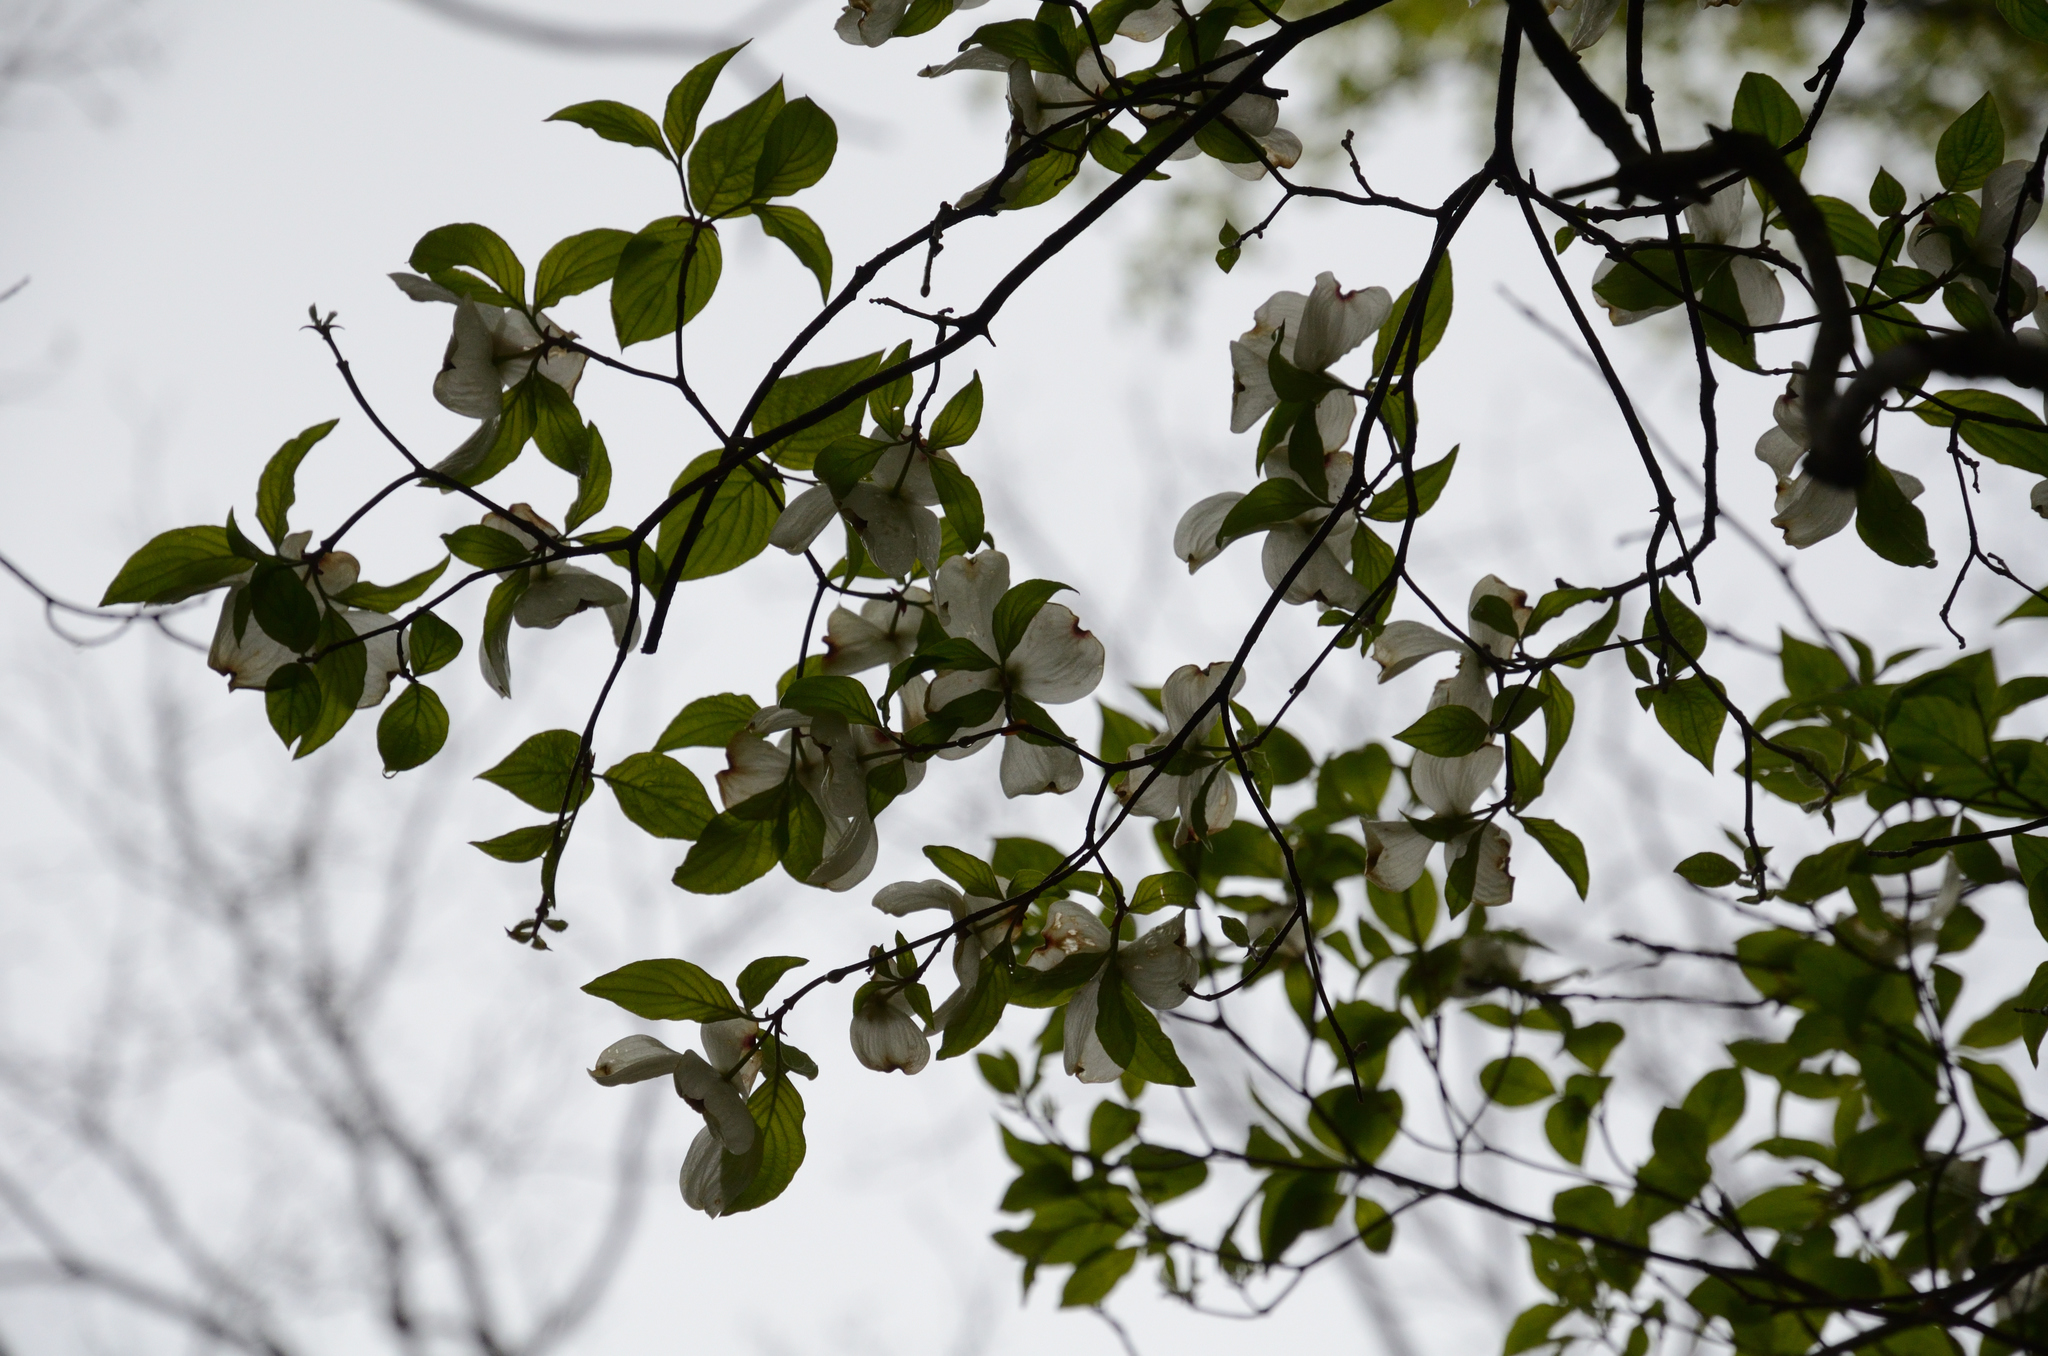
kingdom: Plantae
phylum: Tracheophyta
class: Magnoliopsida
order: Cornales
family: Cornaceae
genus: Cornus
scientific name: Cornus florida
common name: Flowering dogwood
